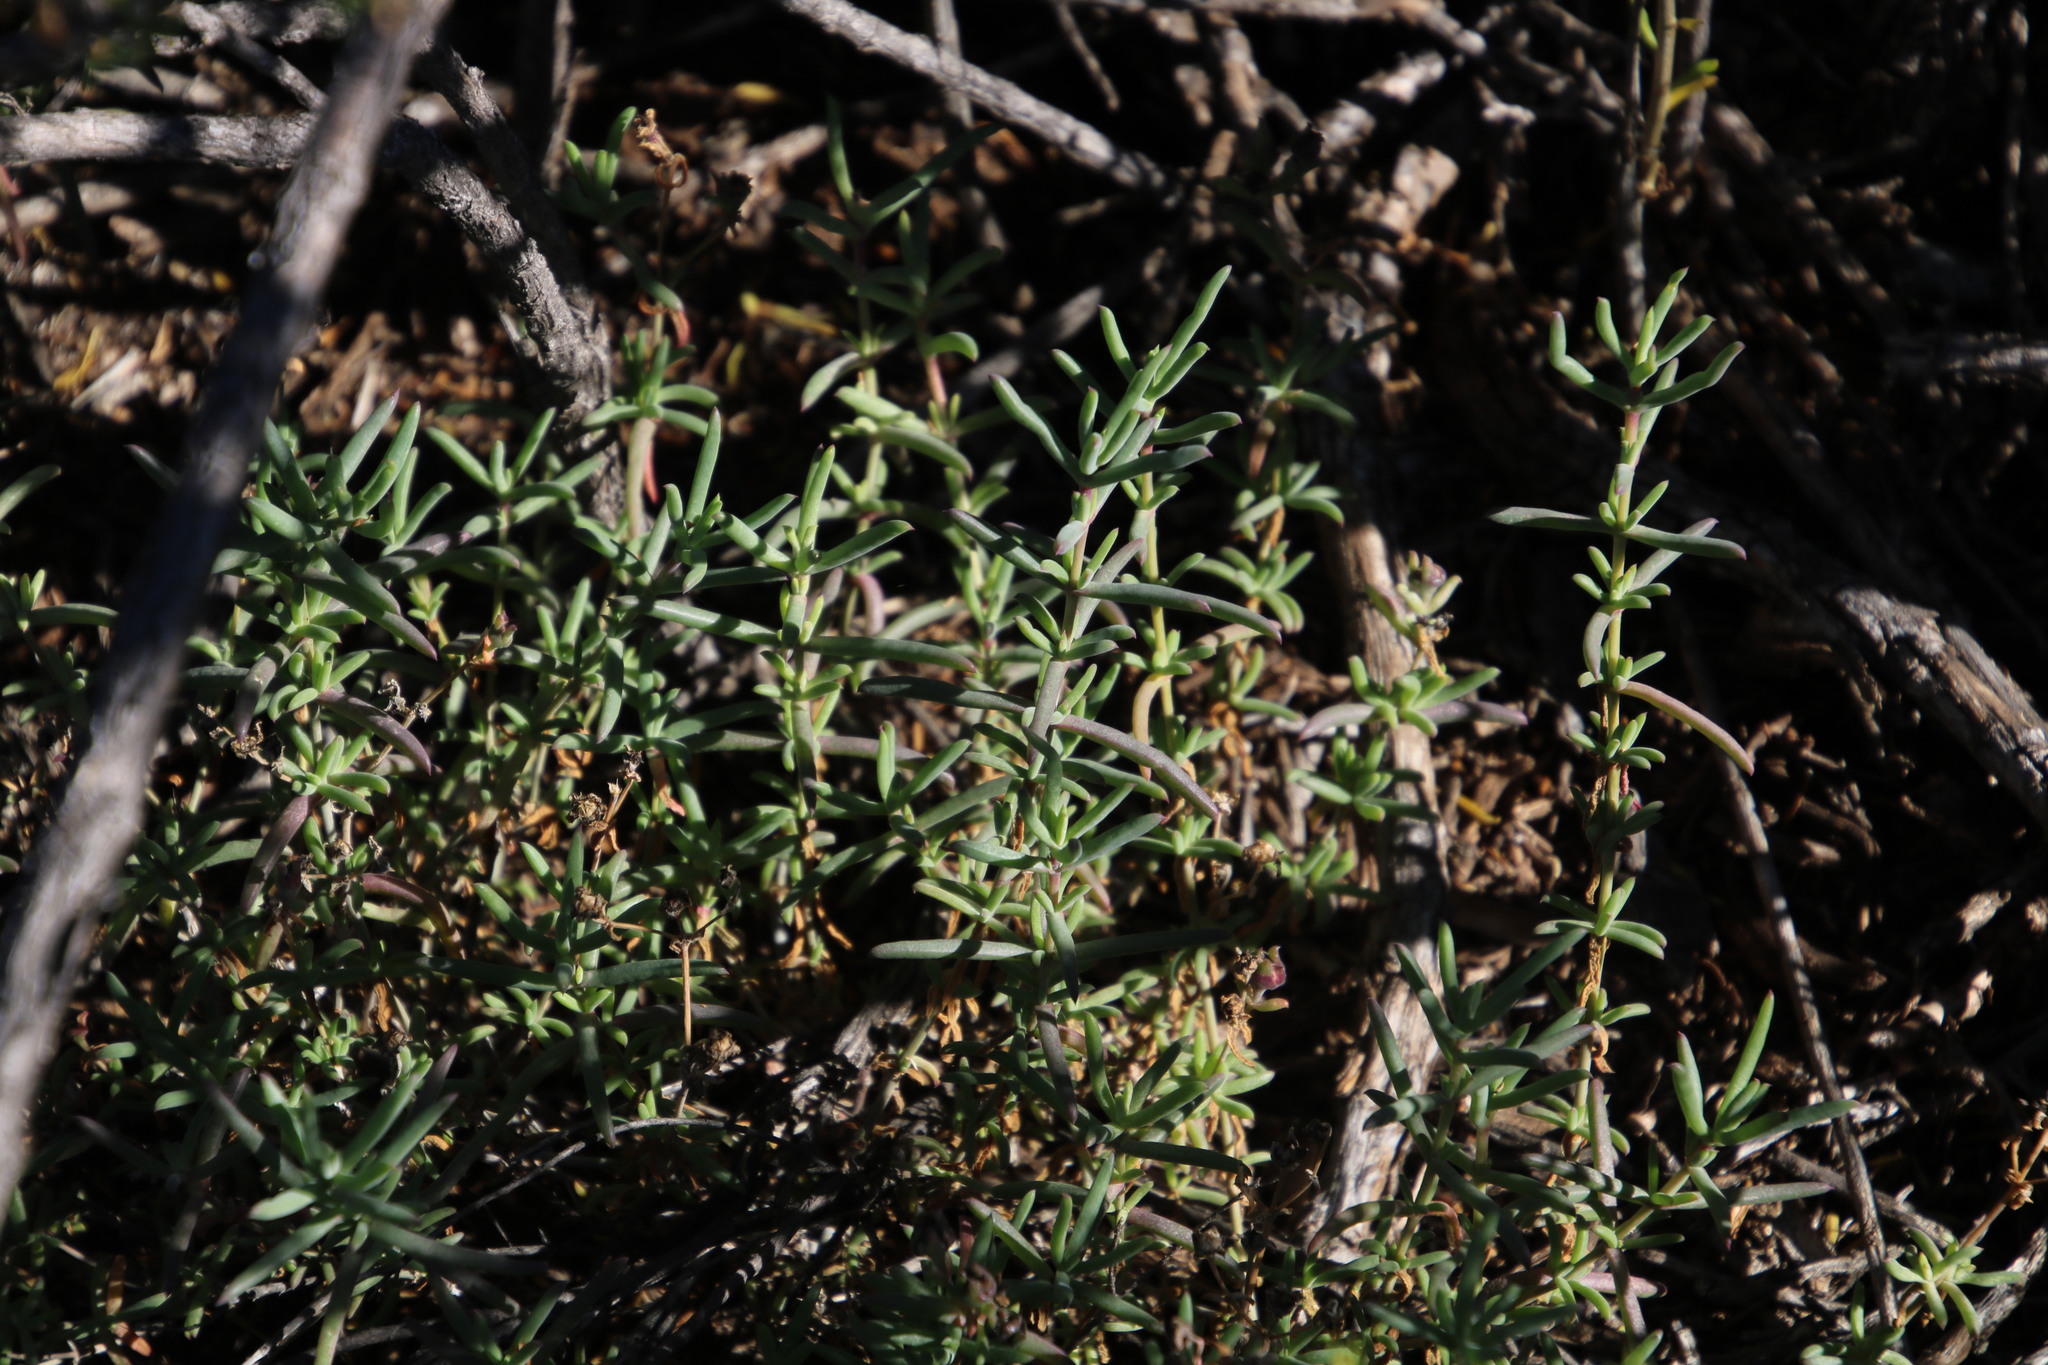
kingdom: Plantae
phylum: Tracheophyta
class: Magnoliopsida
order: Caryophyllales
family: Aizoaceae
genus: Delosperma
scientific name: Delosperma ornatulum
